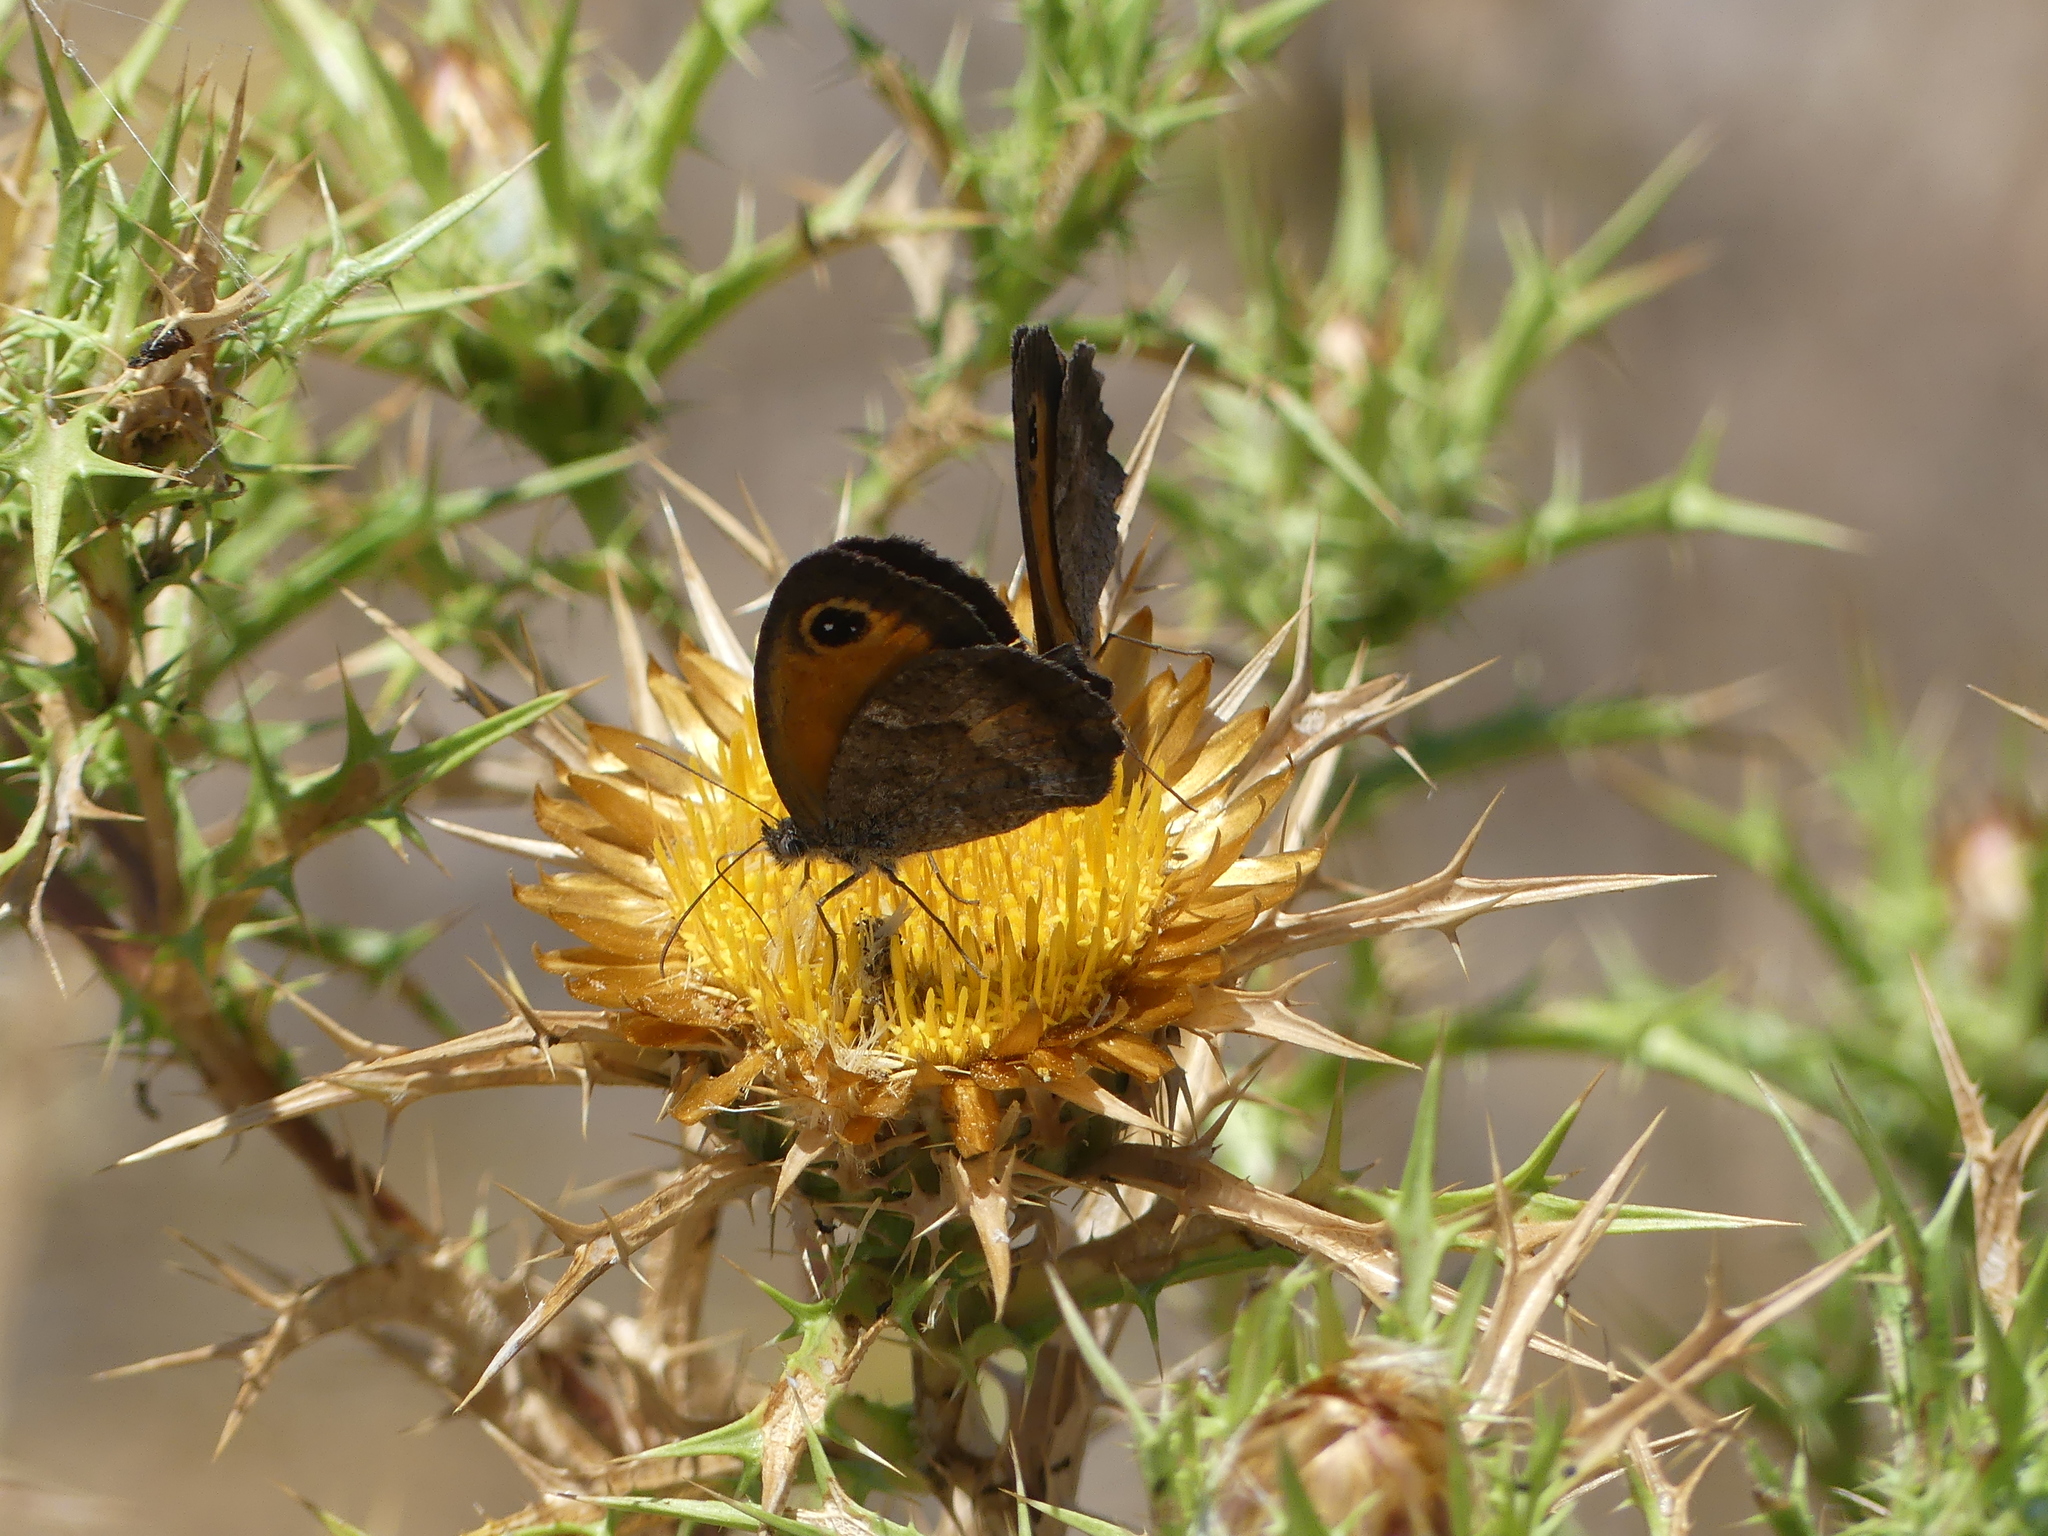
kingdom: Animalia
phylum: Arthropoda
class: Insecta
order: Lepidoptera
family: Nymphalidae
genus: Pyronia
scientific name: Pyronia cecilia
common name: Southern gatekeeper
